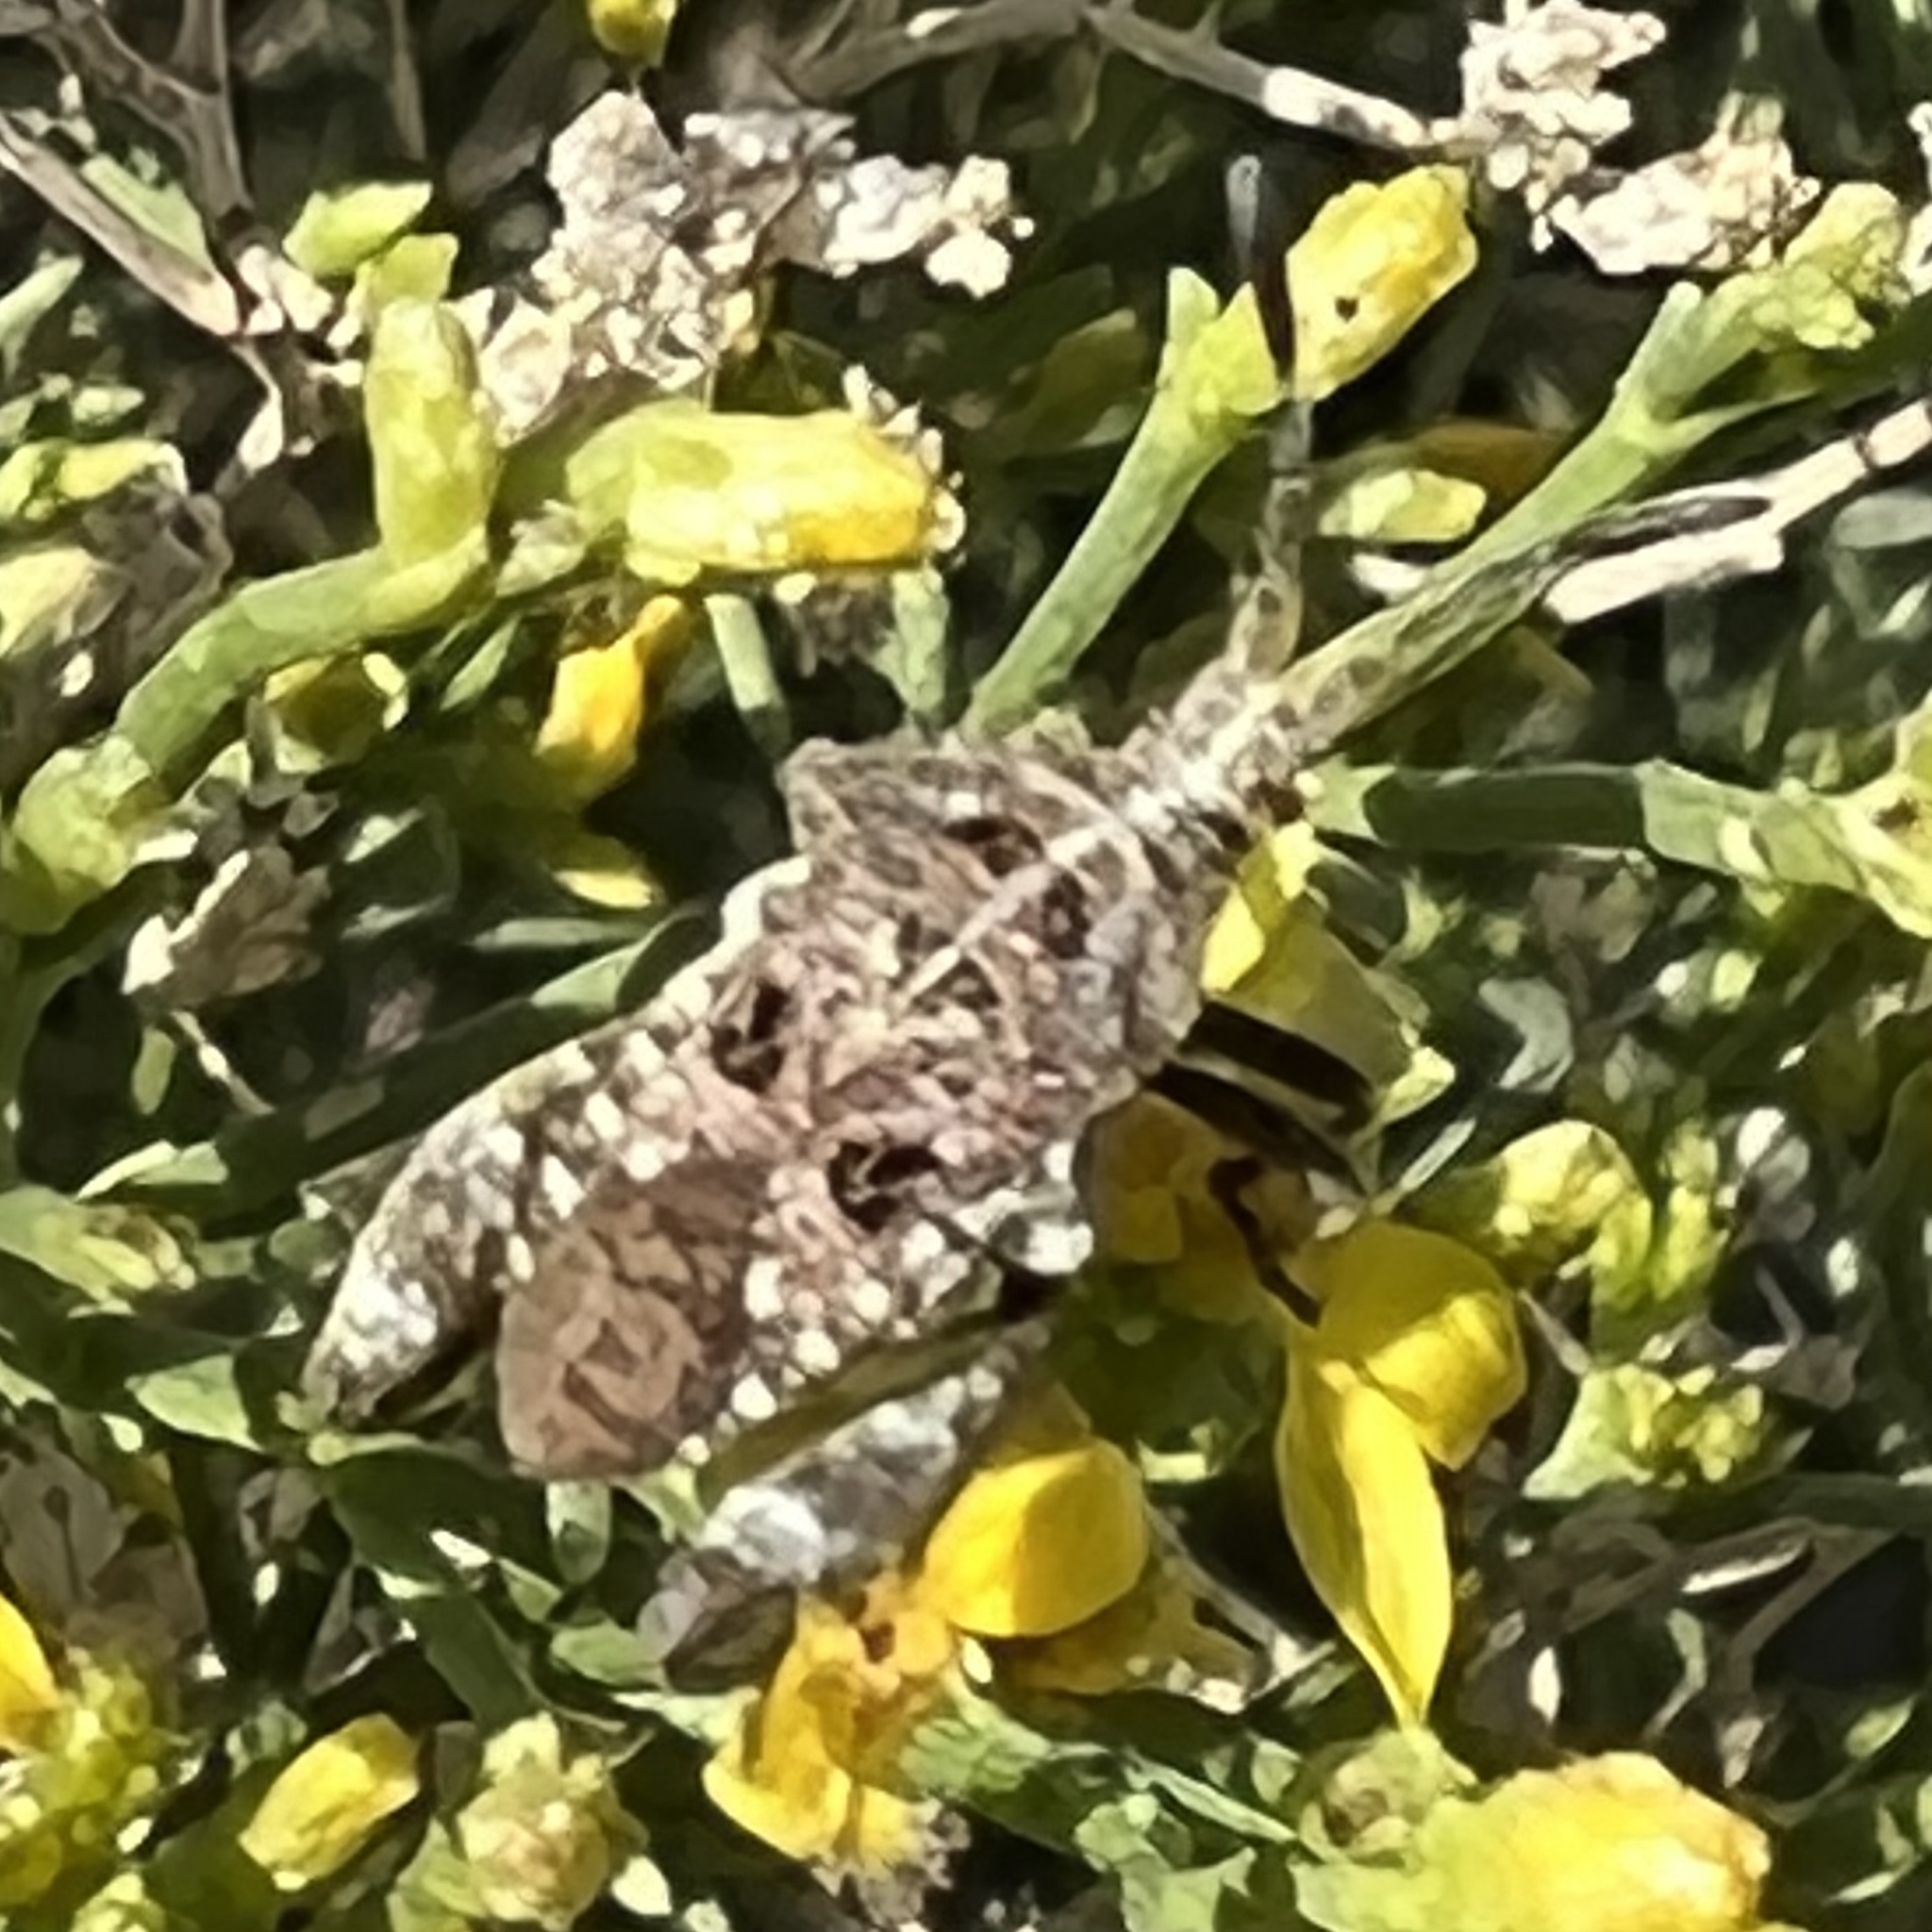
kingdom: Animalia
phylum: Arthropoda
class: Insecta
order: Hemiptera
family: Coreidae
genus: Merocoris
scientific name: Merocoris curtatus
